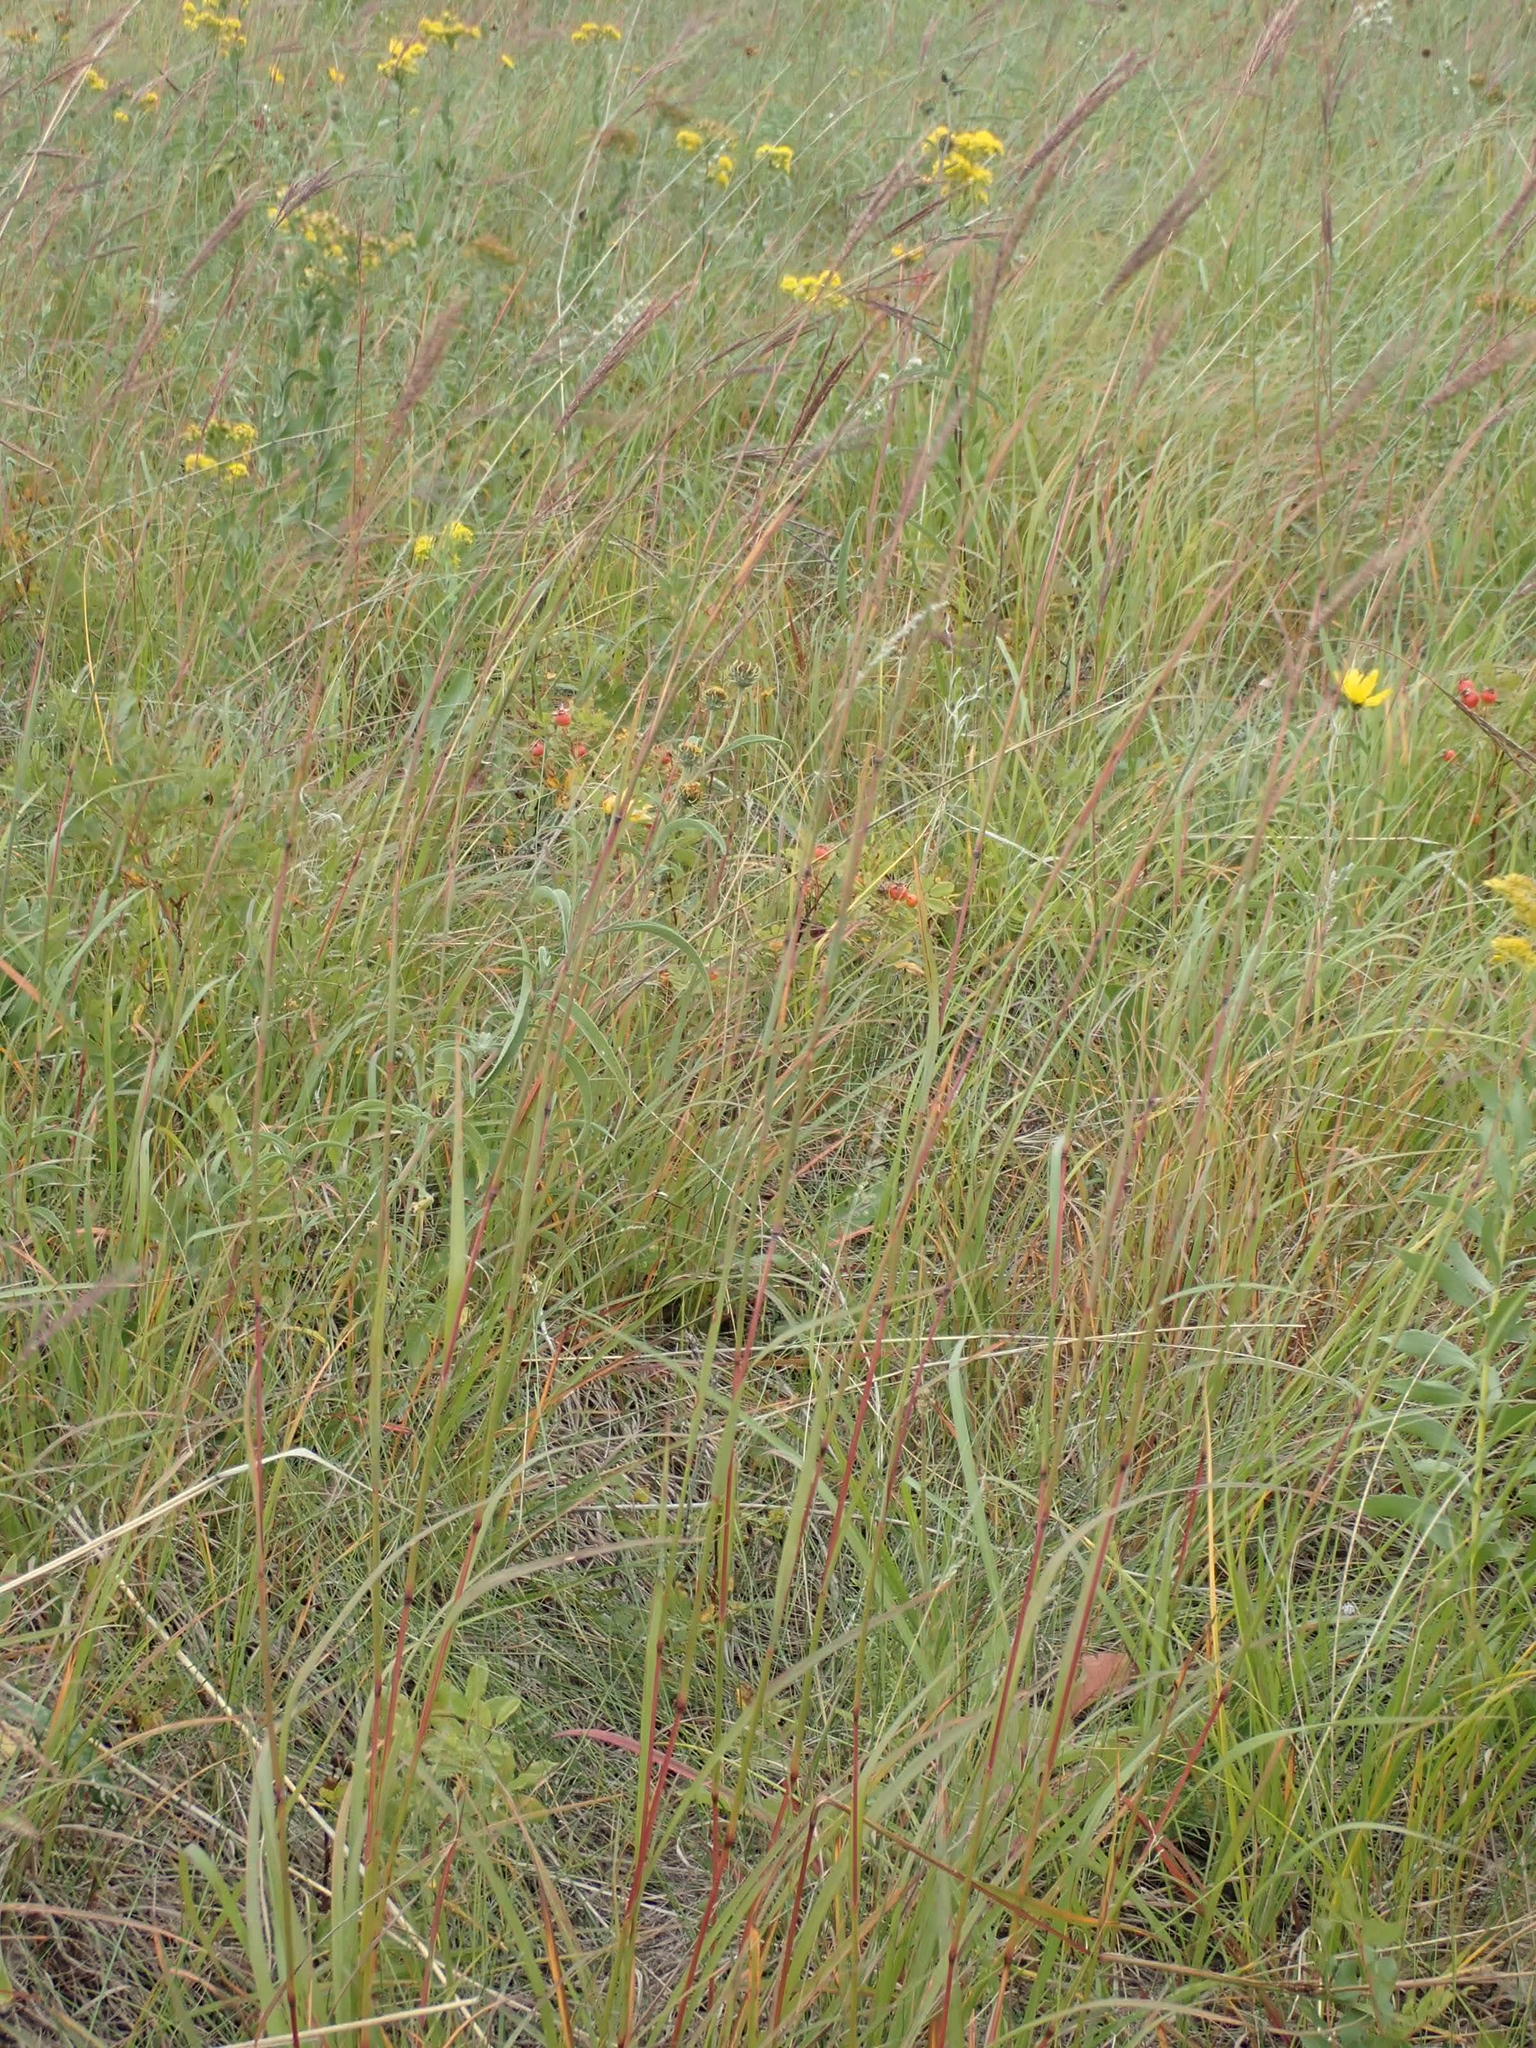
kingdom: Plantae
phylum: Tracheophyta
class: Liliopsida
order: Poales
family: Poaceae
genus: Andropogon
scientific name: Andropogon gerardi
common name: Big bluestem
